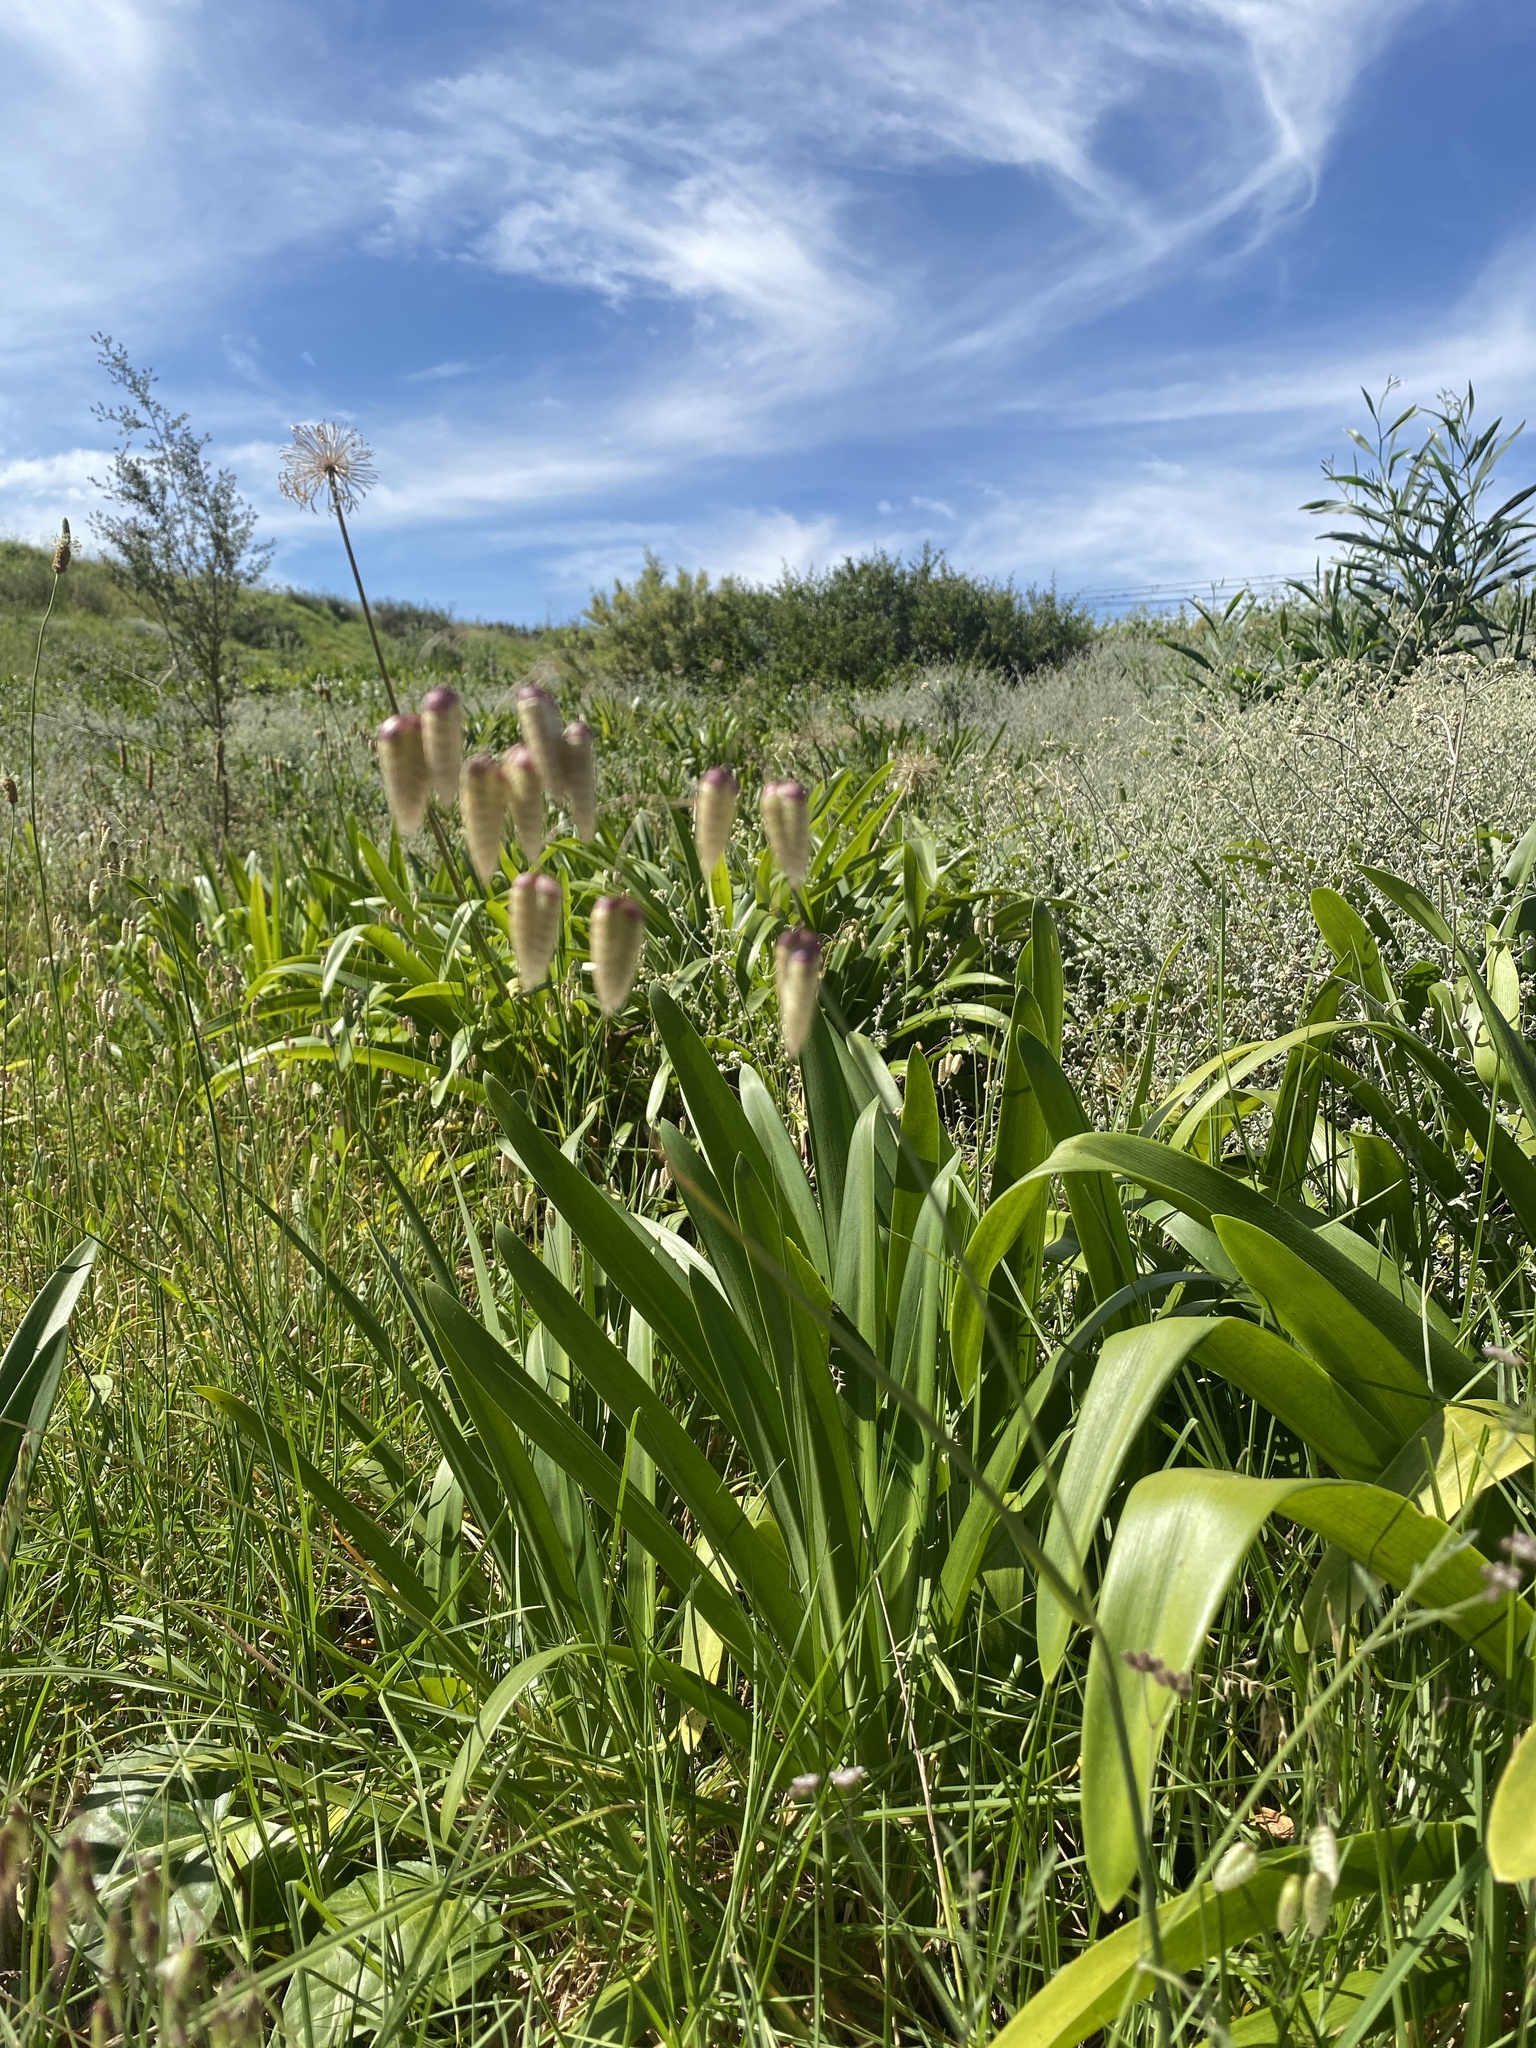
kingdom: Plantae
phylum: Tracheophyta
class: Liliopsida
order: Poales
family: Poaceae
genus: Briza
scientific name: Briza maxima
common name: Big quakinggrass
